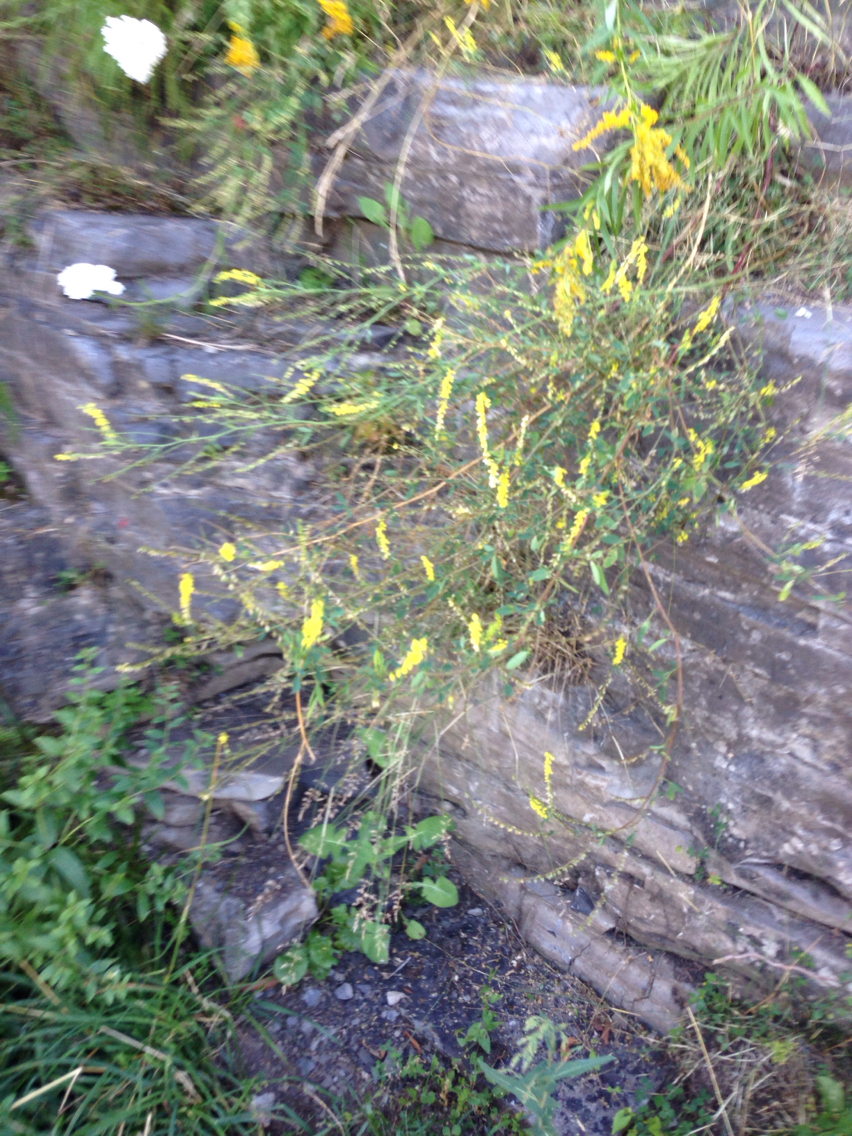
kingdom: Plantae
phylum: Tracheophyta
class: Magnoliopsida
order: Fabales
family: Fabaceae
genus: Melilotus
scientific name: Melilotus officinalis
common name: Sweetclover
